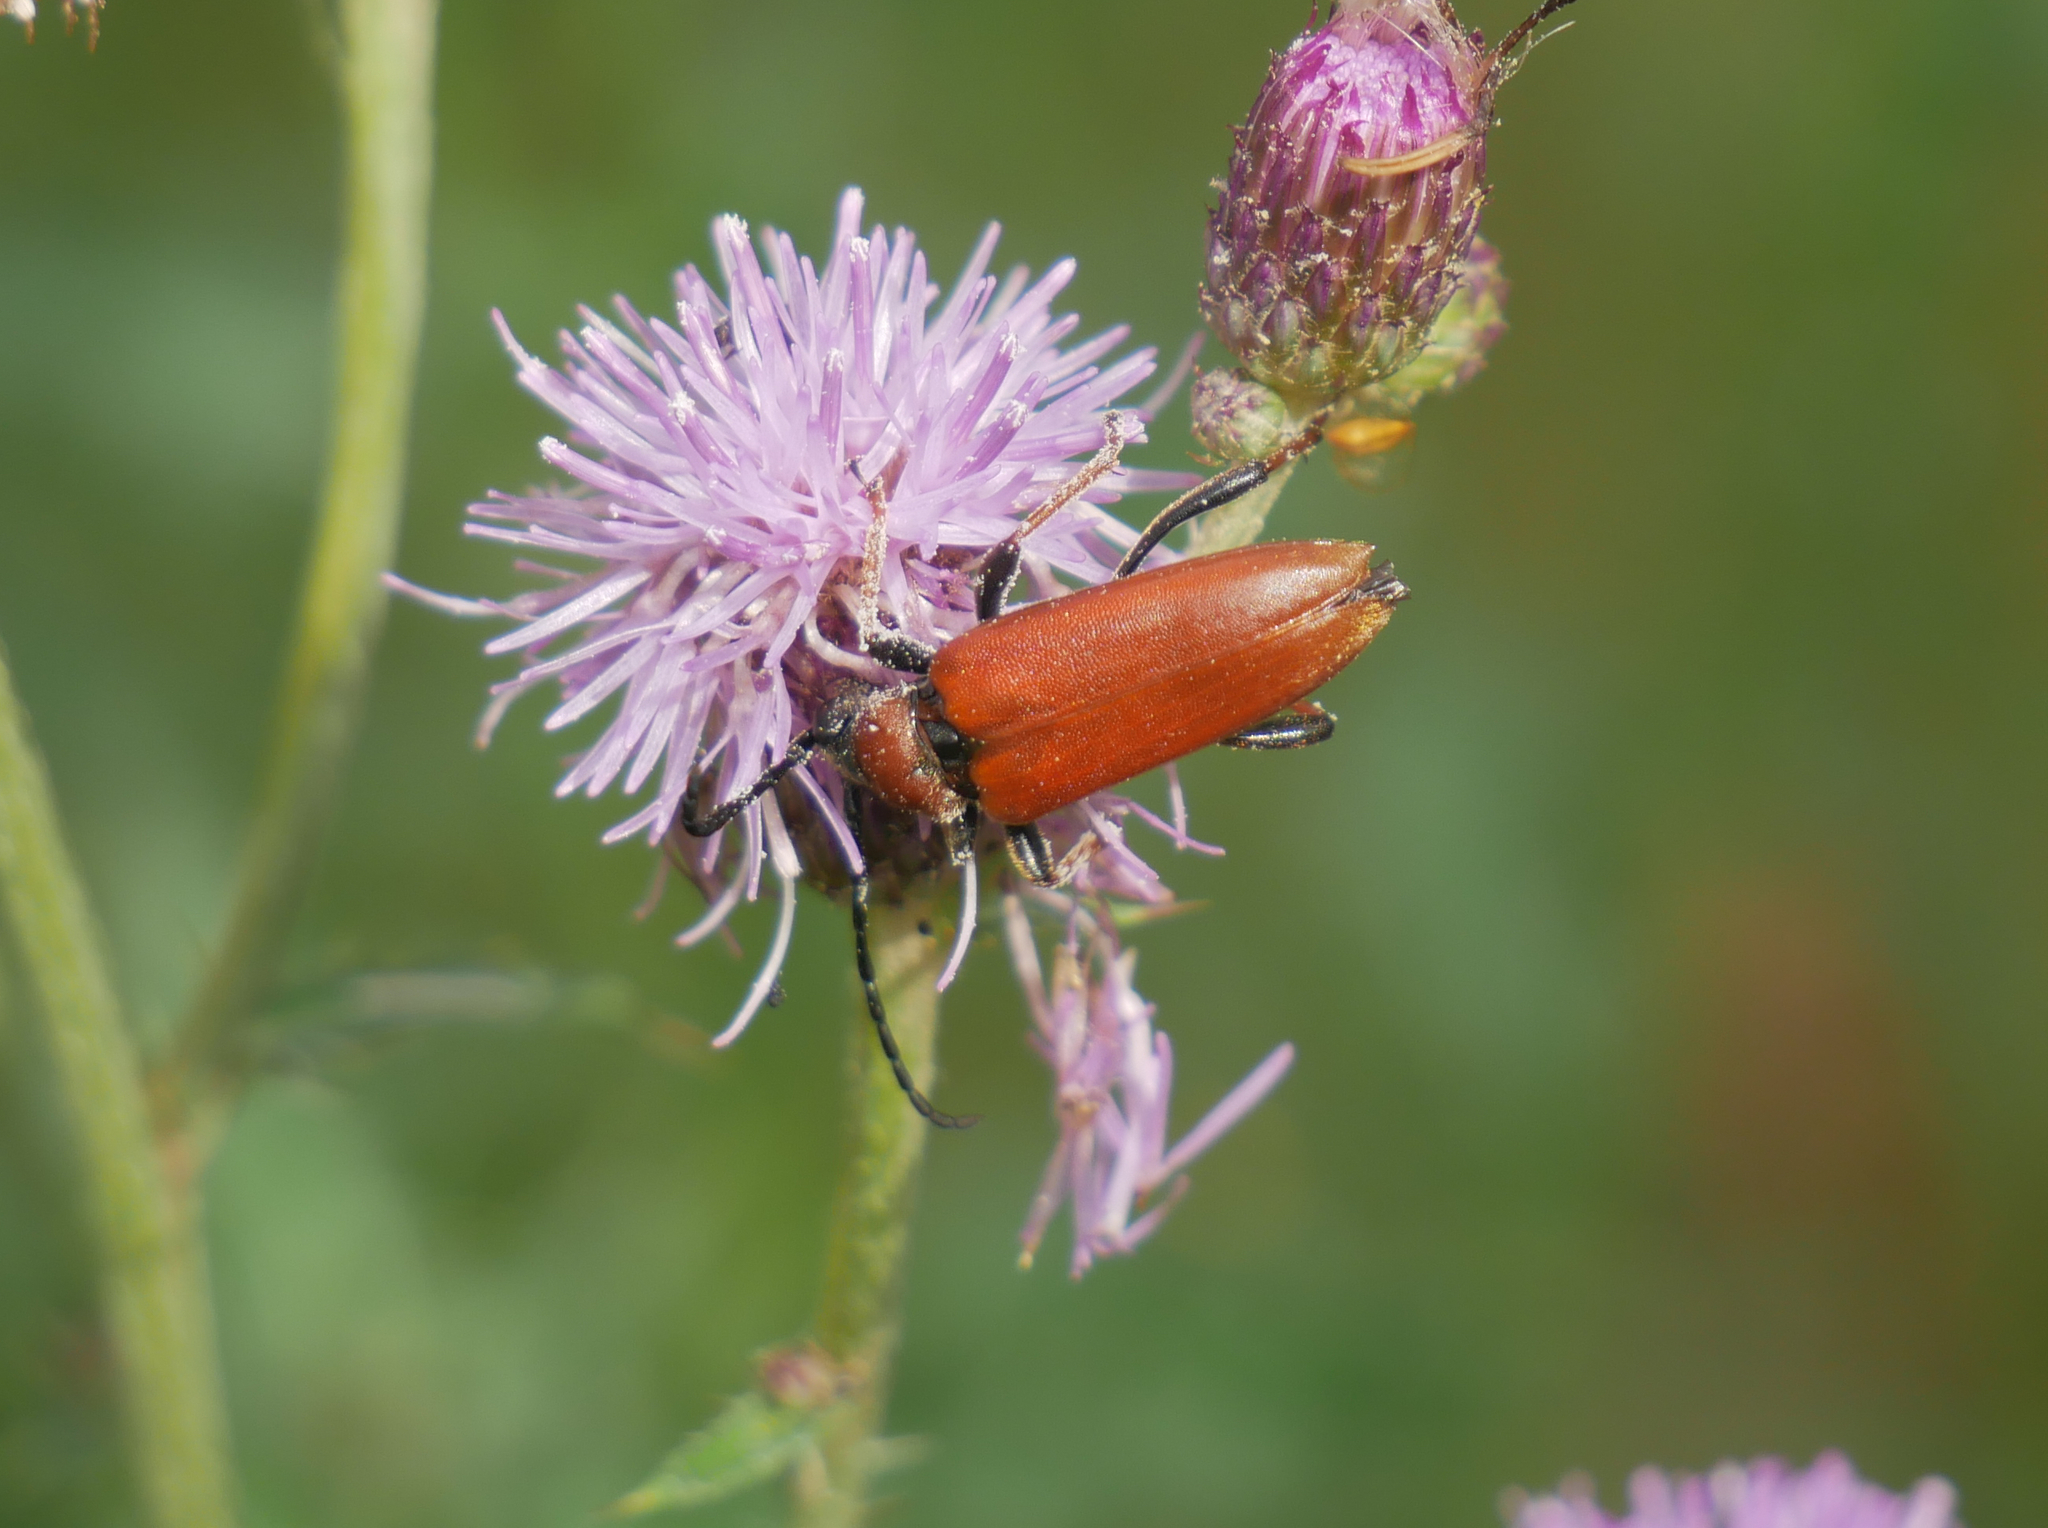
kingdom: Animalia
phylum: Arthropoda
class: Insecta
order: Coleoptera
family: Cerambycidae
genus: Stictoleptura
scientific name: Stictoleptura rubra
